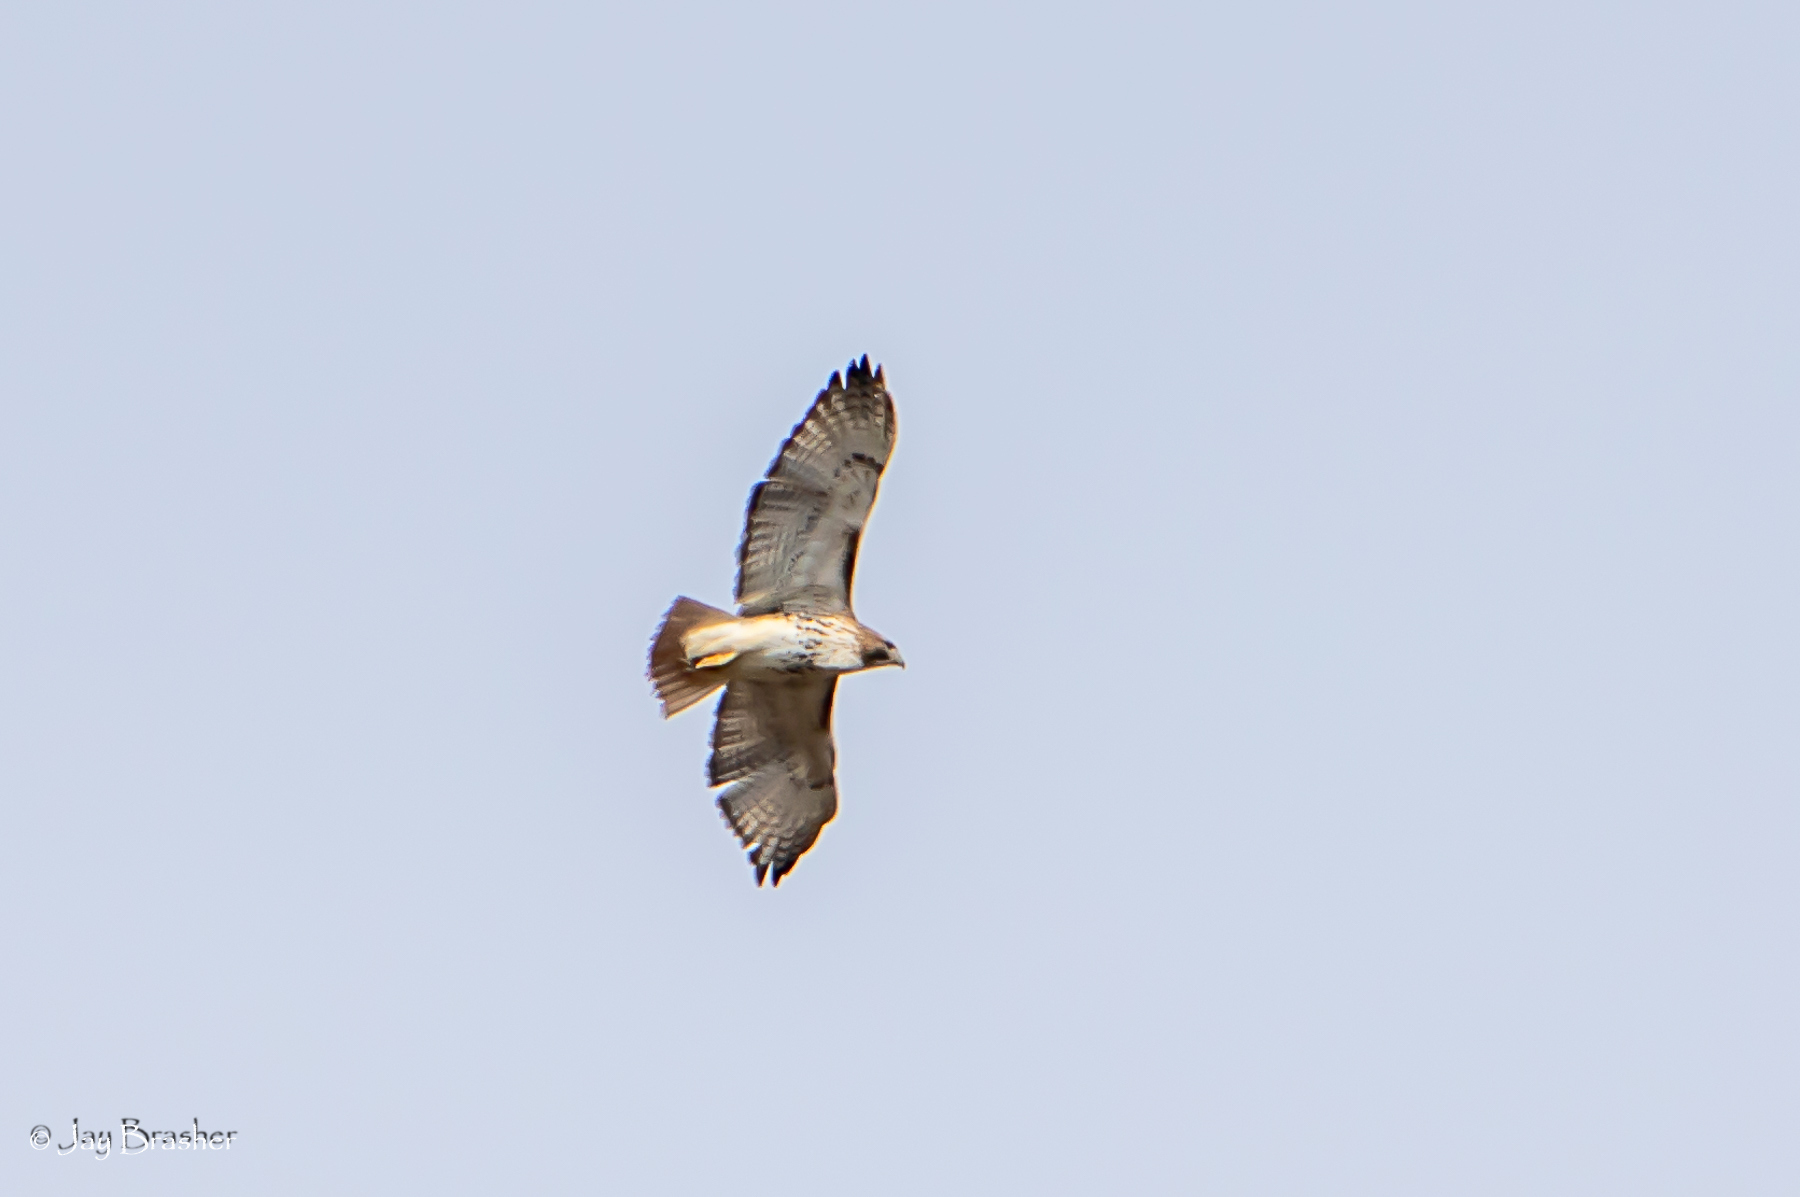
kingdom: Animalia
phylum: Chordata
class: Aves
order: Accipitriformes
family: Accipitridae
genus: Buteo
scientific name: Buteo jamaicensis
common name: Red-tailed hawk
